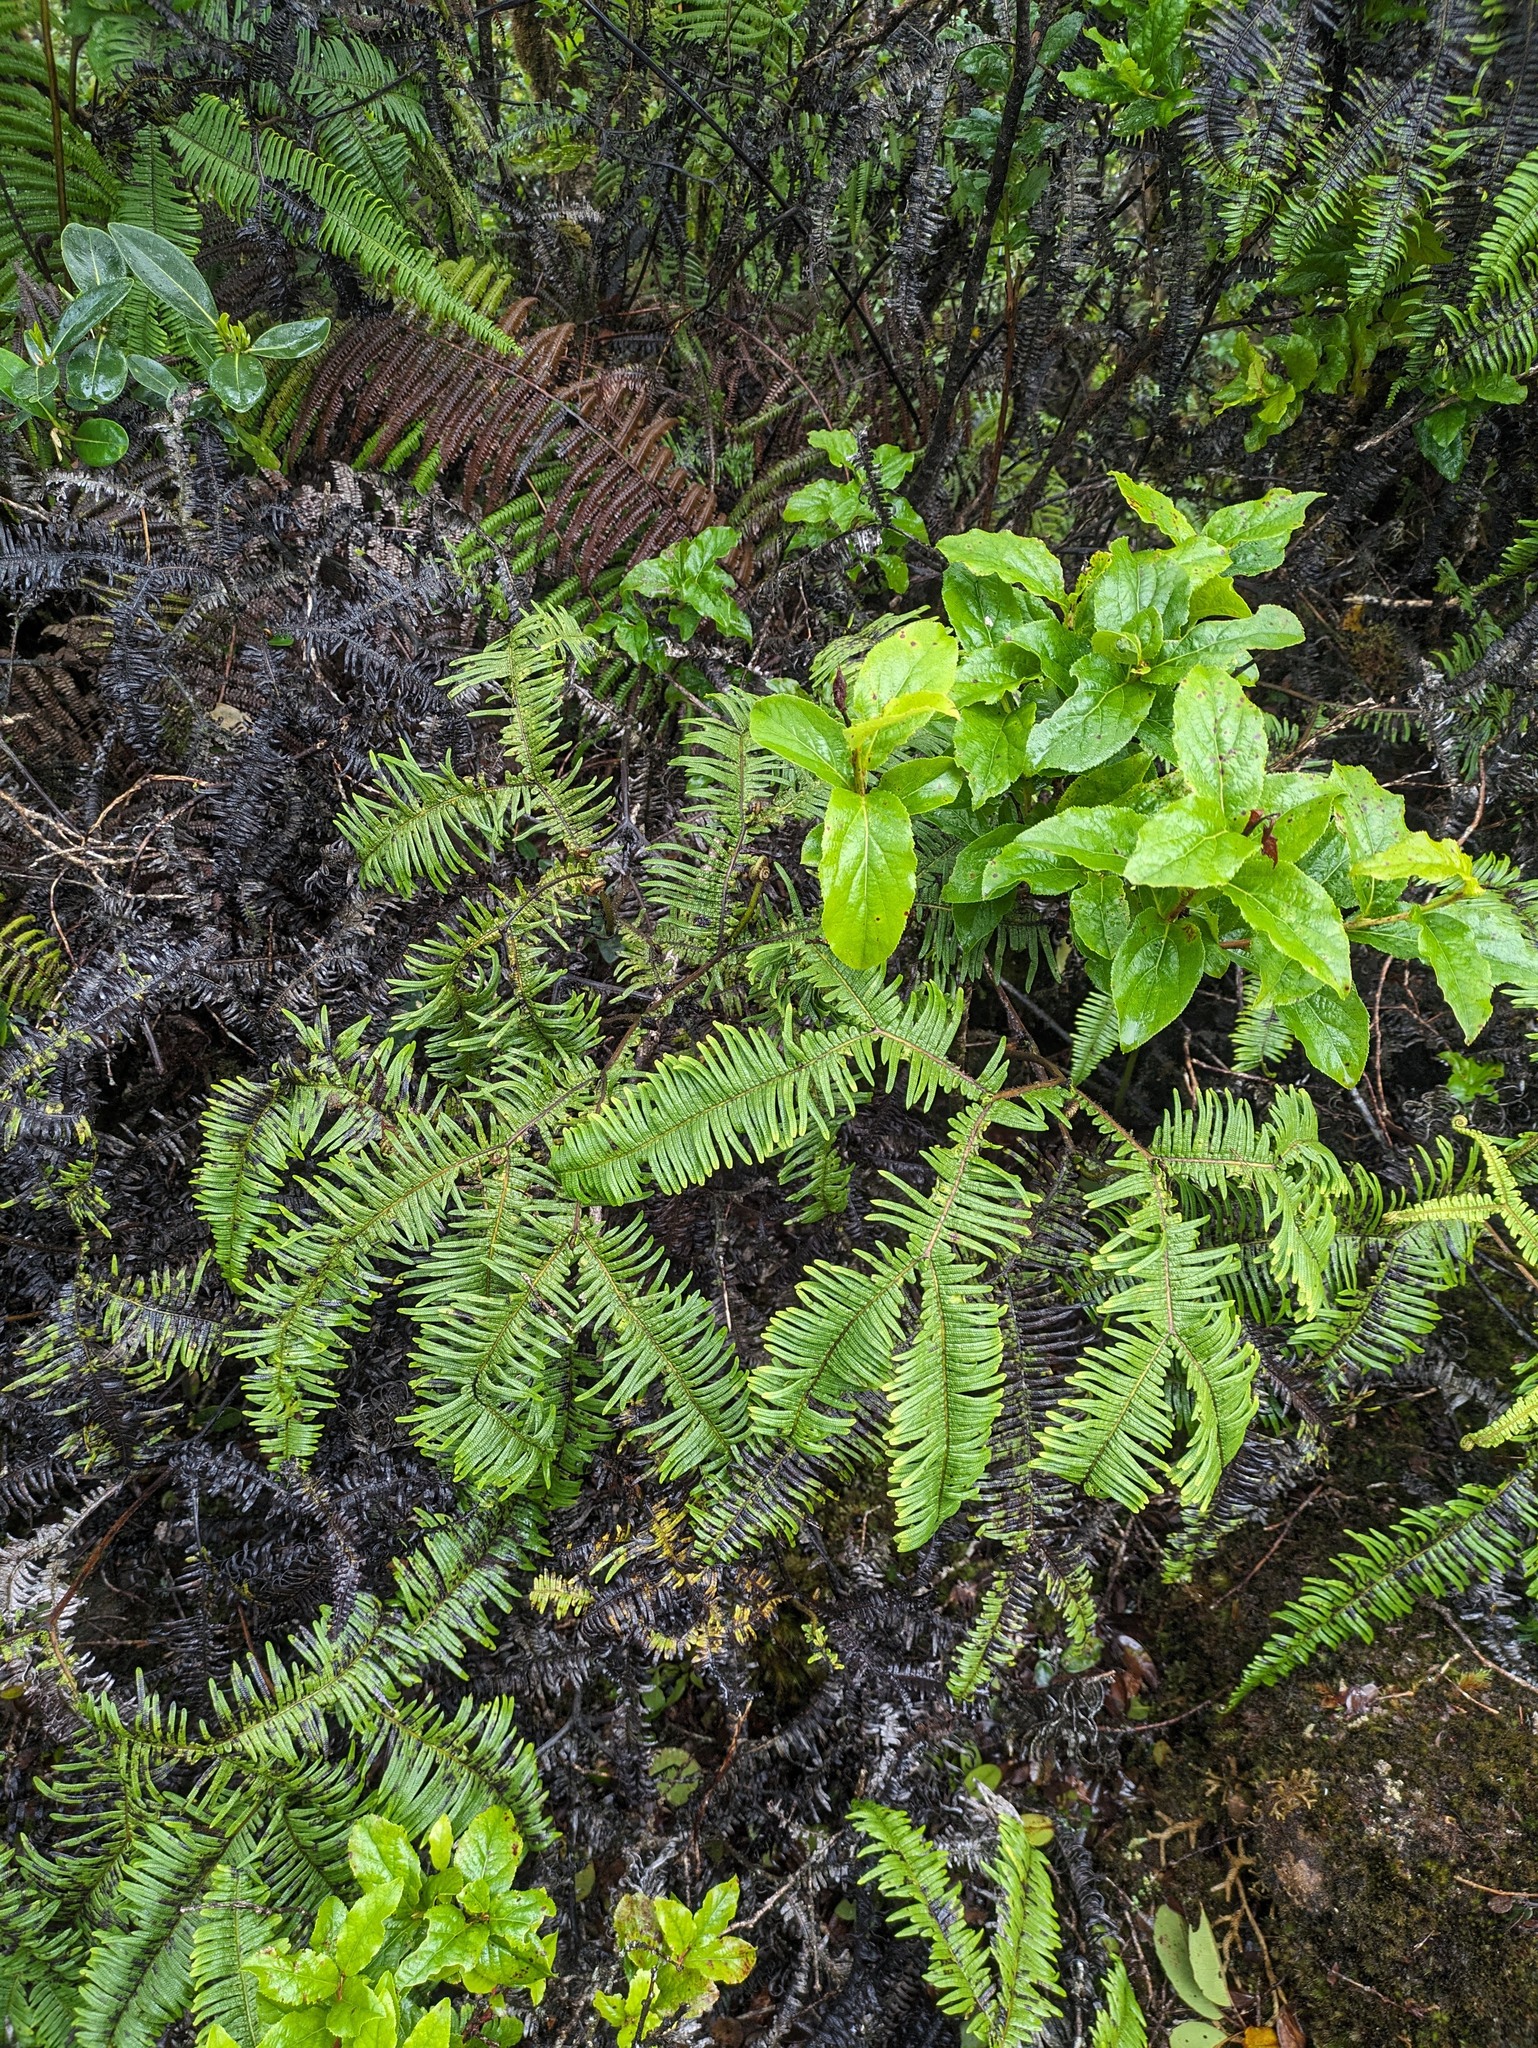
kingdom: Plantae
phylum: Tracheophyta
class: Polypodiopsida
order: Gleicheniales
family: Gleicheniaceae
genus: Sticherus
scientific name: Sticherus owhyhensis
